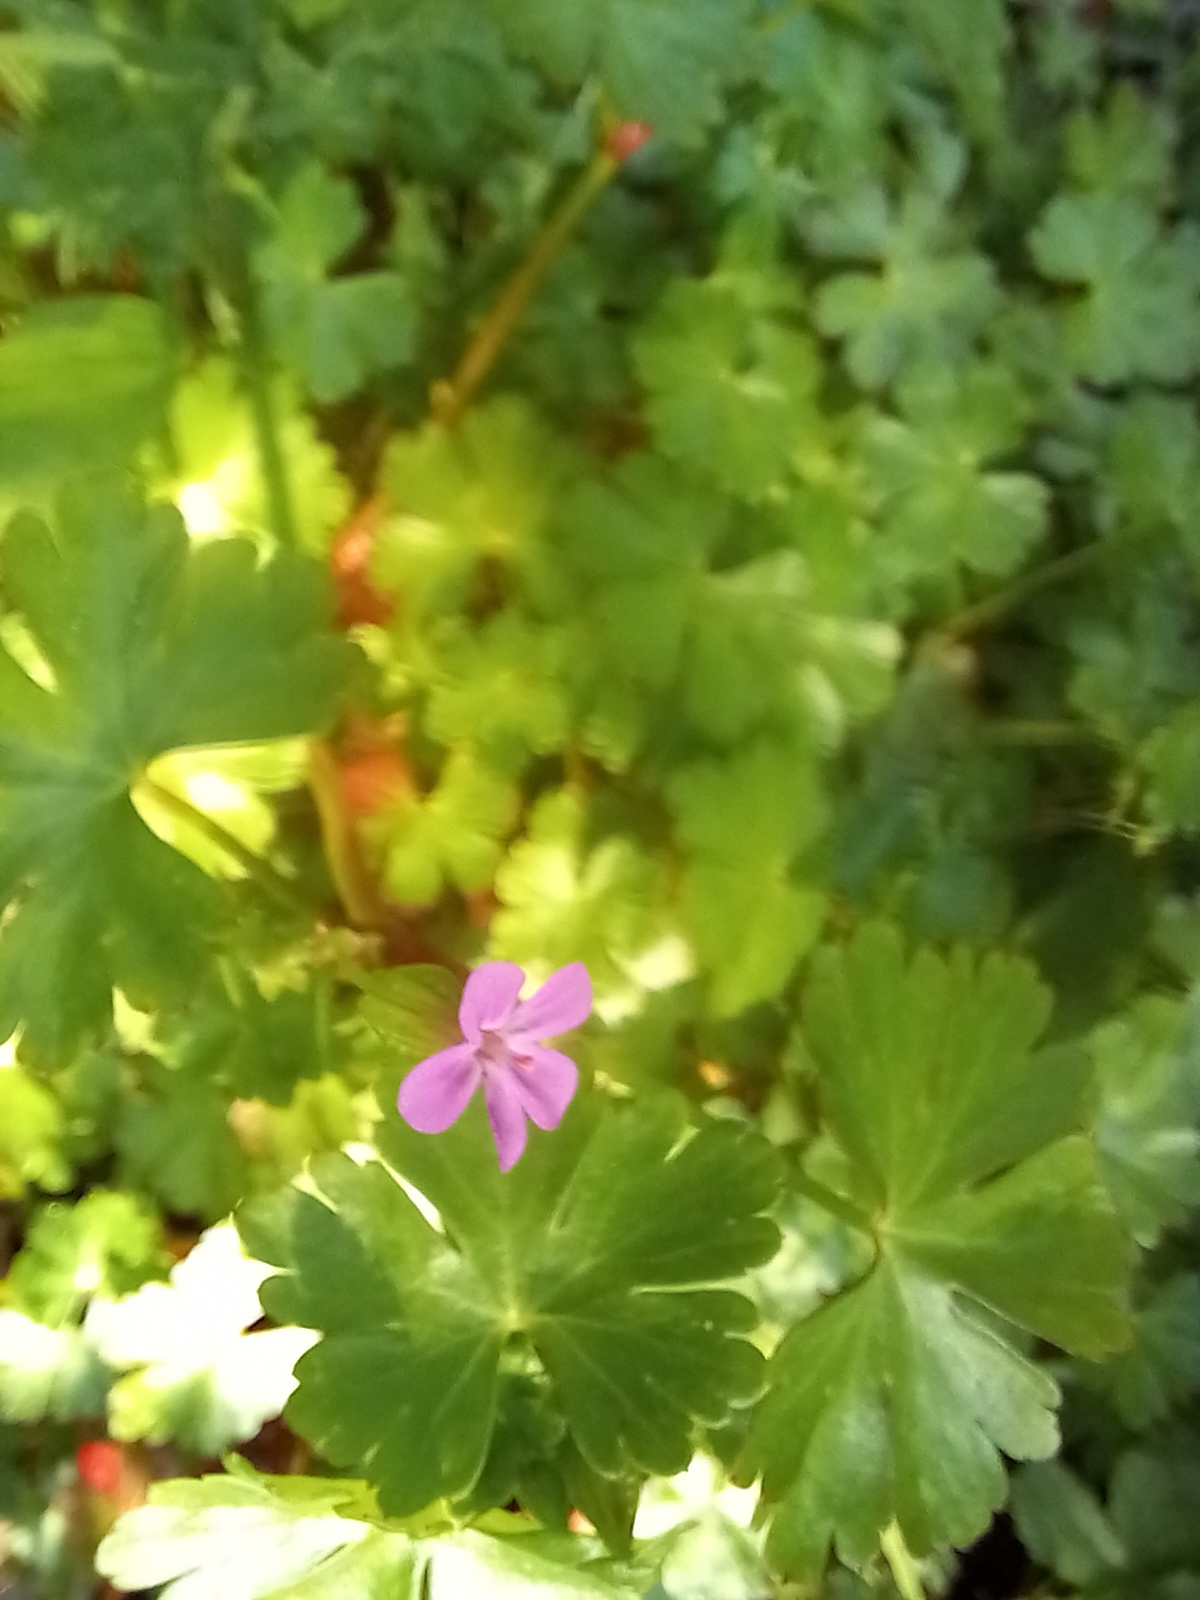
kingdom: Plantae
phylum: Tracheophyta
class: Magnoliopsida
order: Geraniales
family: Geraniaceae
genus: Geranium
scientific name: Geranium lucidum
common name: Shining crane's-bill
